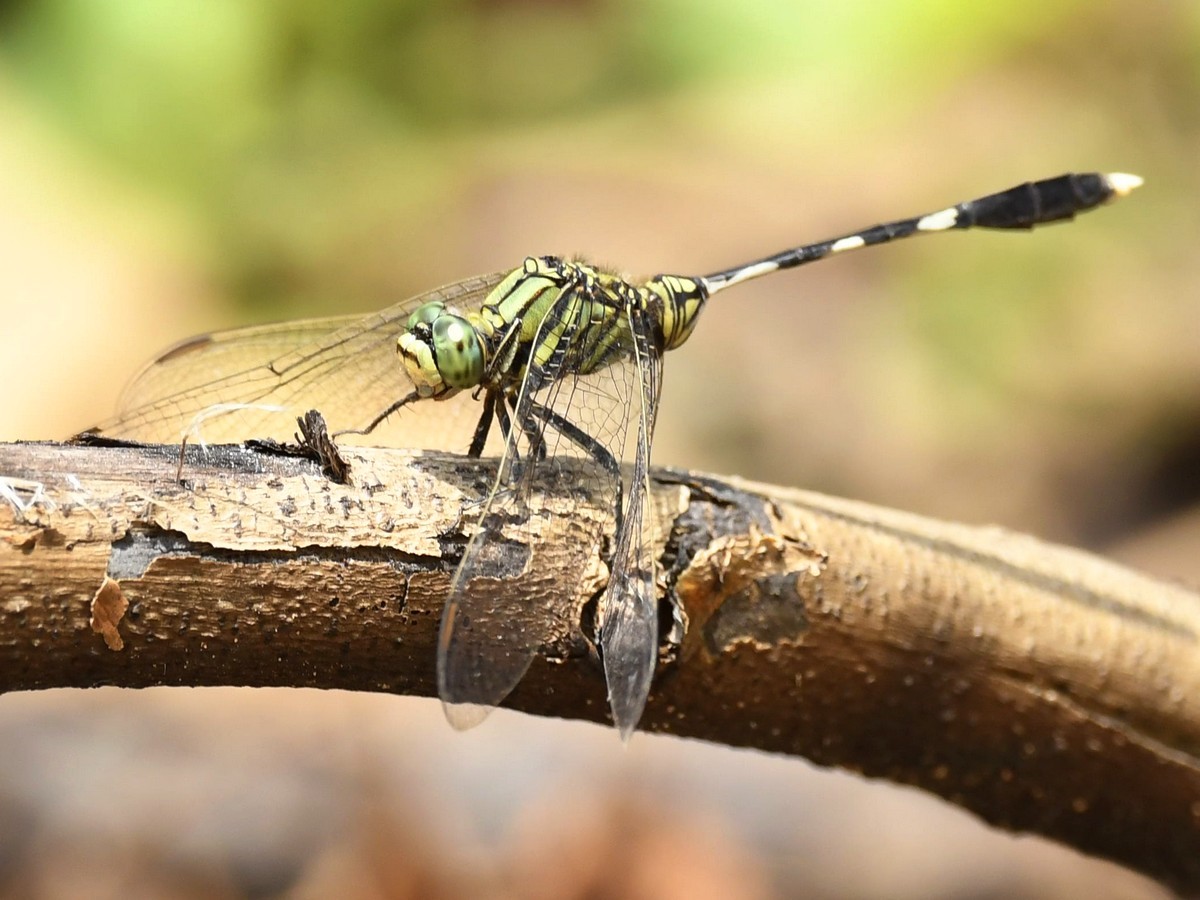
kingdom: Animalia
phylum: Arthropoda
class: Insecta
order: Odonata
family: Libellulidae
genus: Orthetrum
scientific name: Orthetrum sabina
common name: Slender skimmer
